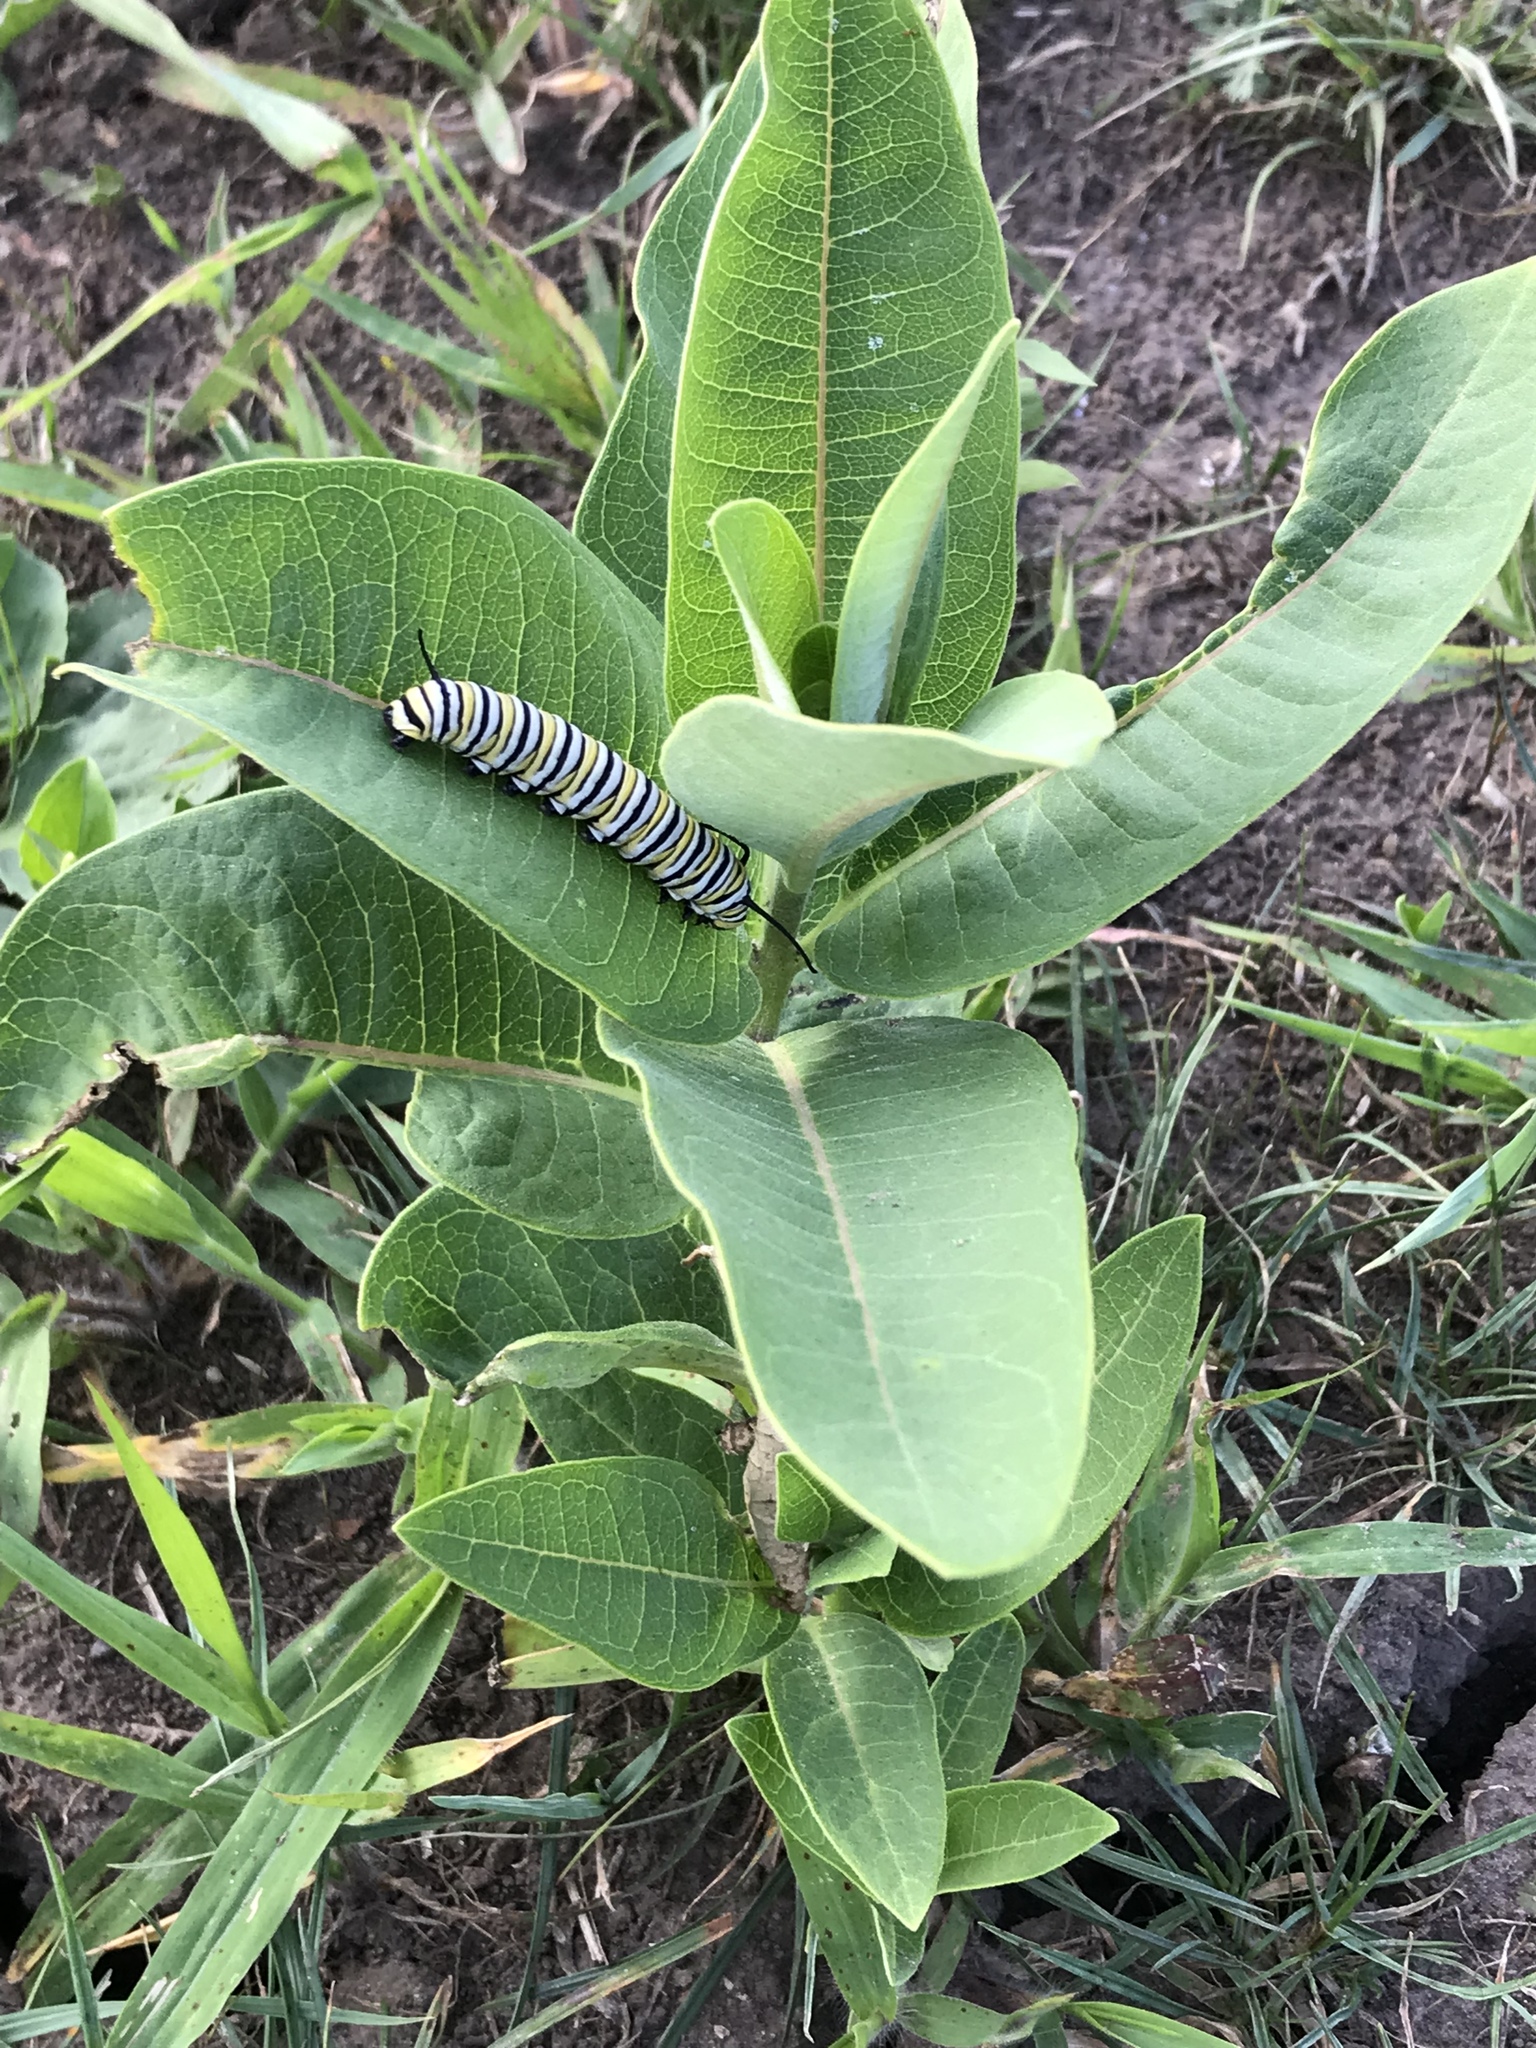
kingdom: Animalia
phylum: Arthropoda
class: Insecta
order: Lepidoptera
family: Nymphalidae
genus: Danaus
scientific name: Danaus plexippus
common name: Monarch
